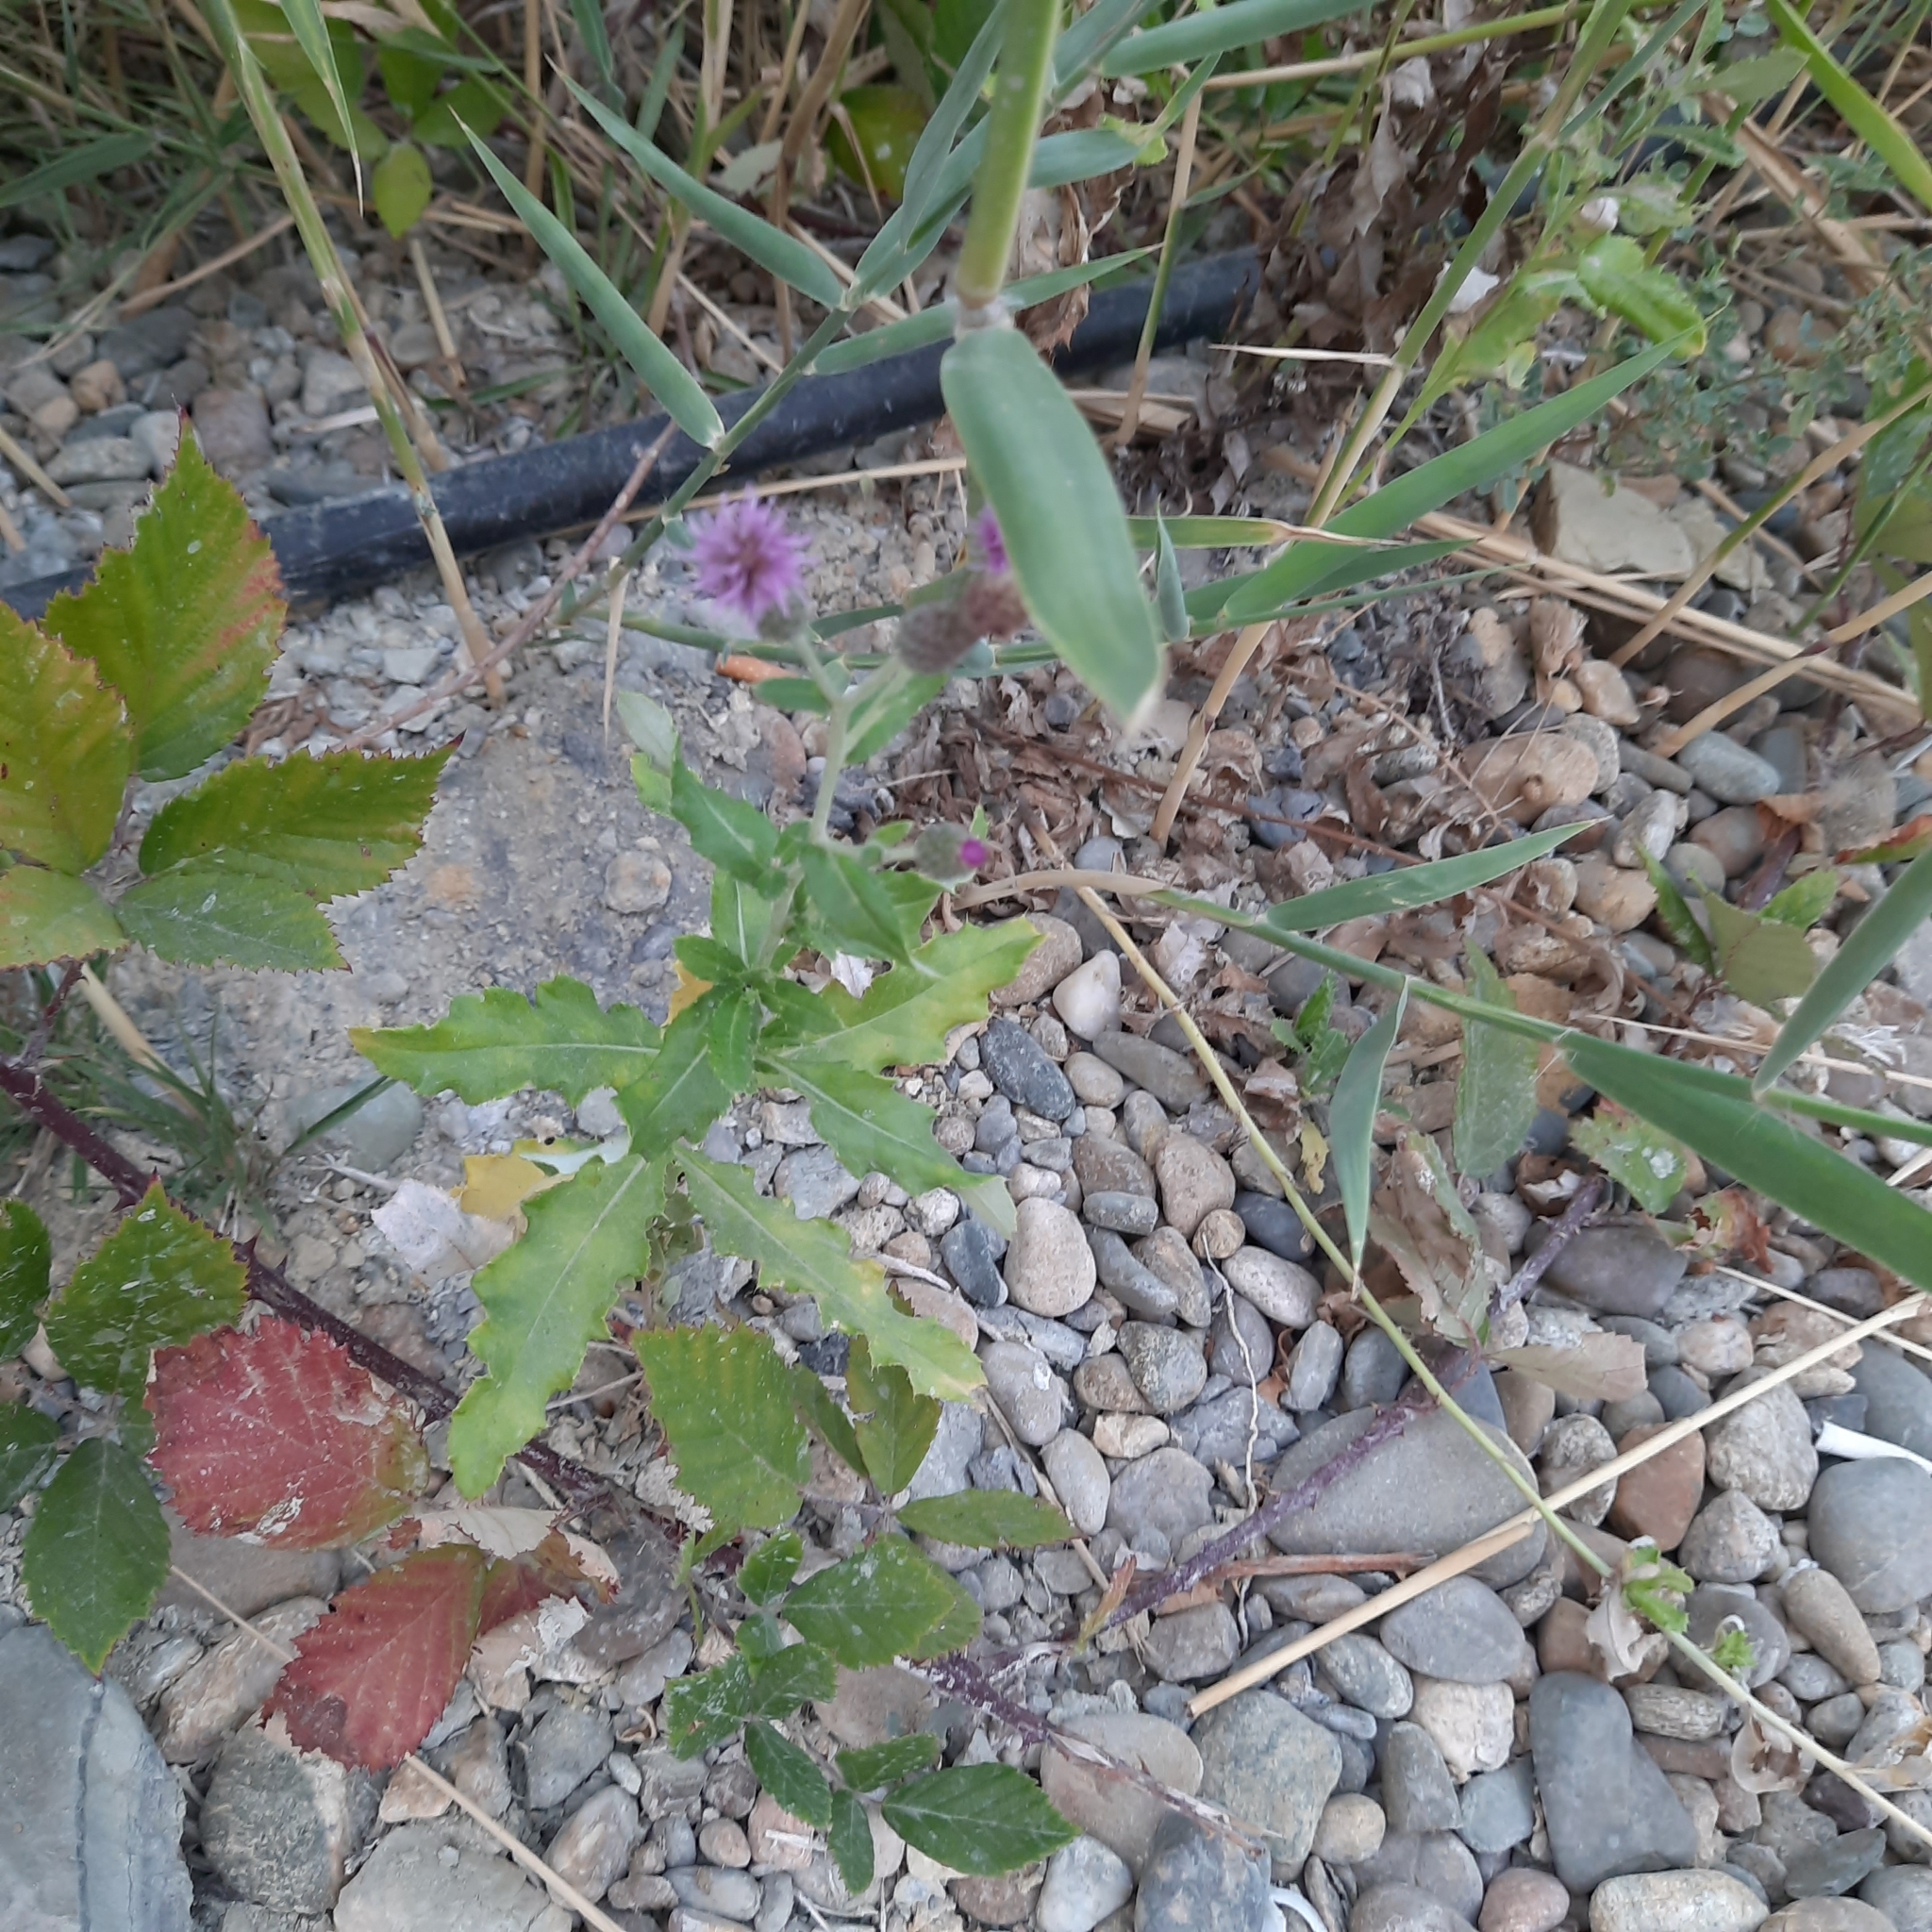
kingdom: Plantae
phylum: Tracheophyta
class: Magnoliopsida
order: Asterales
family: Asteraceae
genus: Cirsium
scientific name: Cirsium arvense
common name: Creeping thistle
